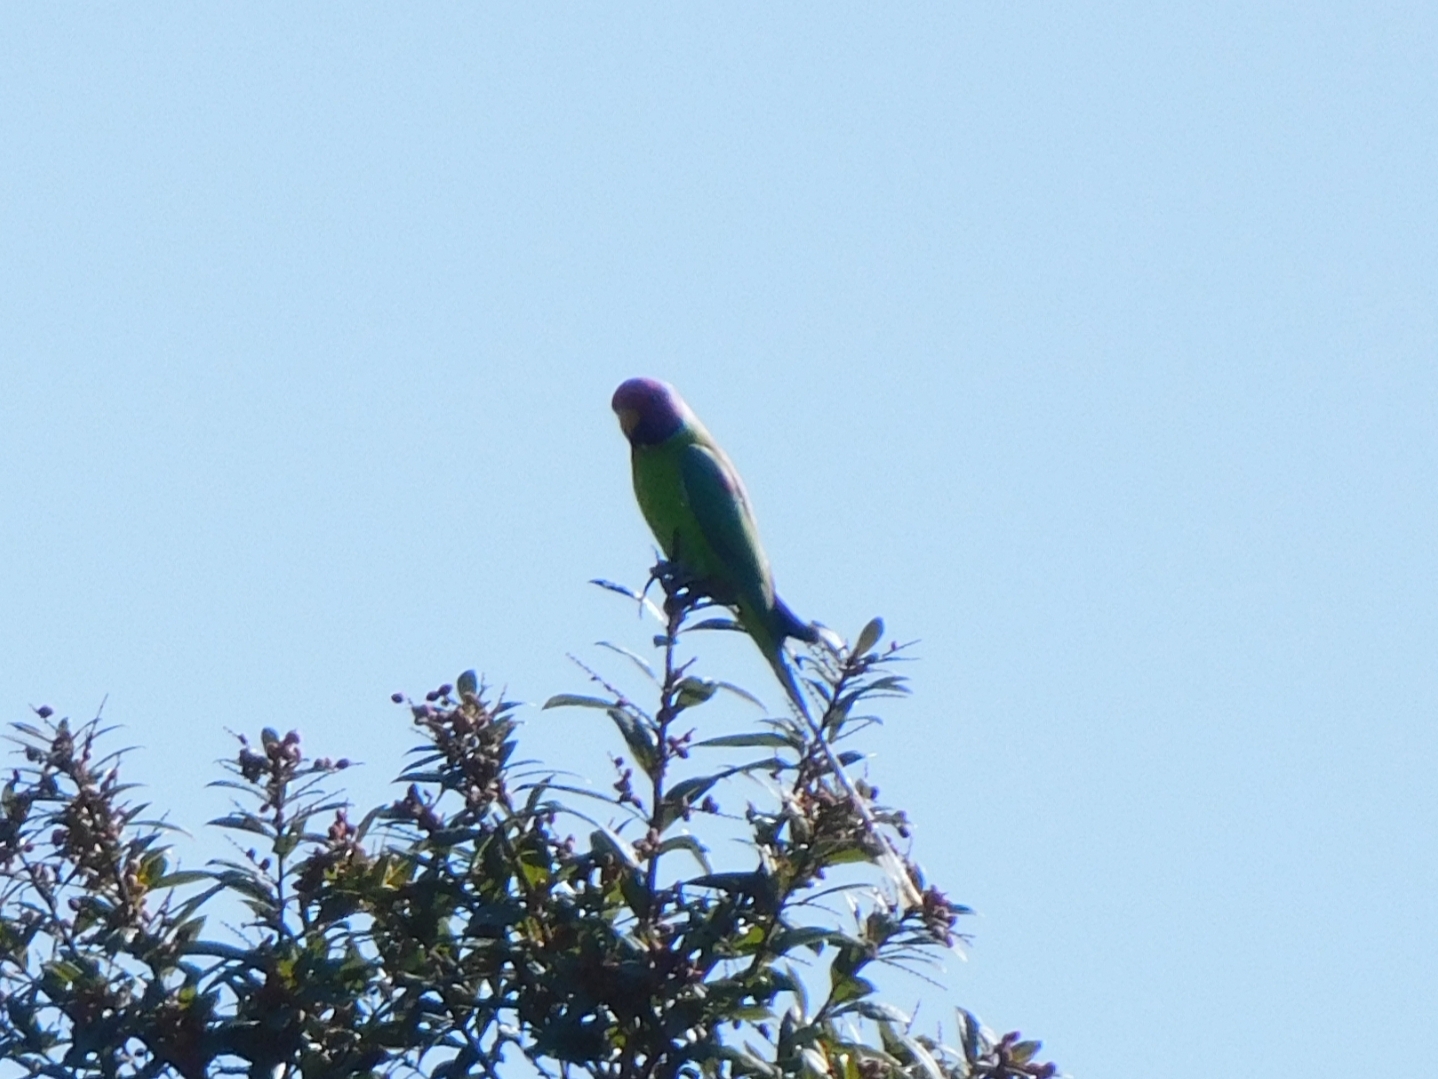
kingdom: Animalia
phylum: Chordata
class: Aves
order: Psittaciformes
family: Psittacidae
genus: Psittacula
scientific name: Psittacula cyanocephala
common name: Plum-headed parakeet
